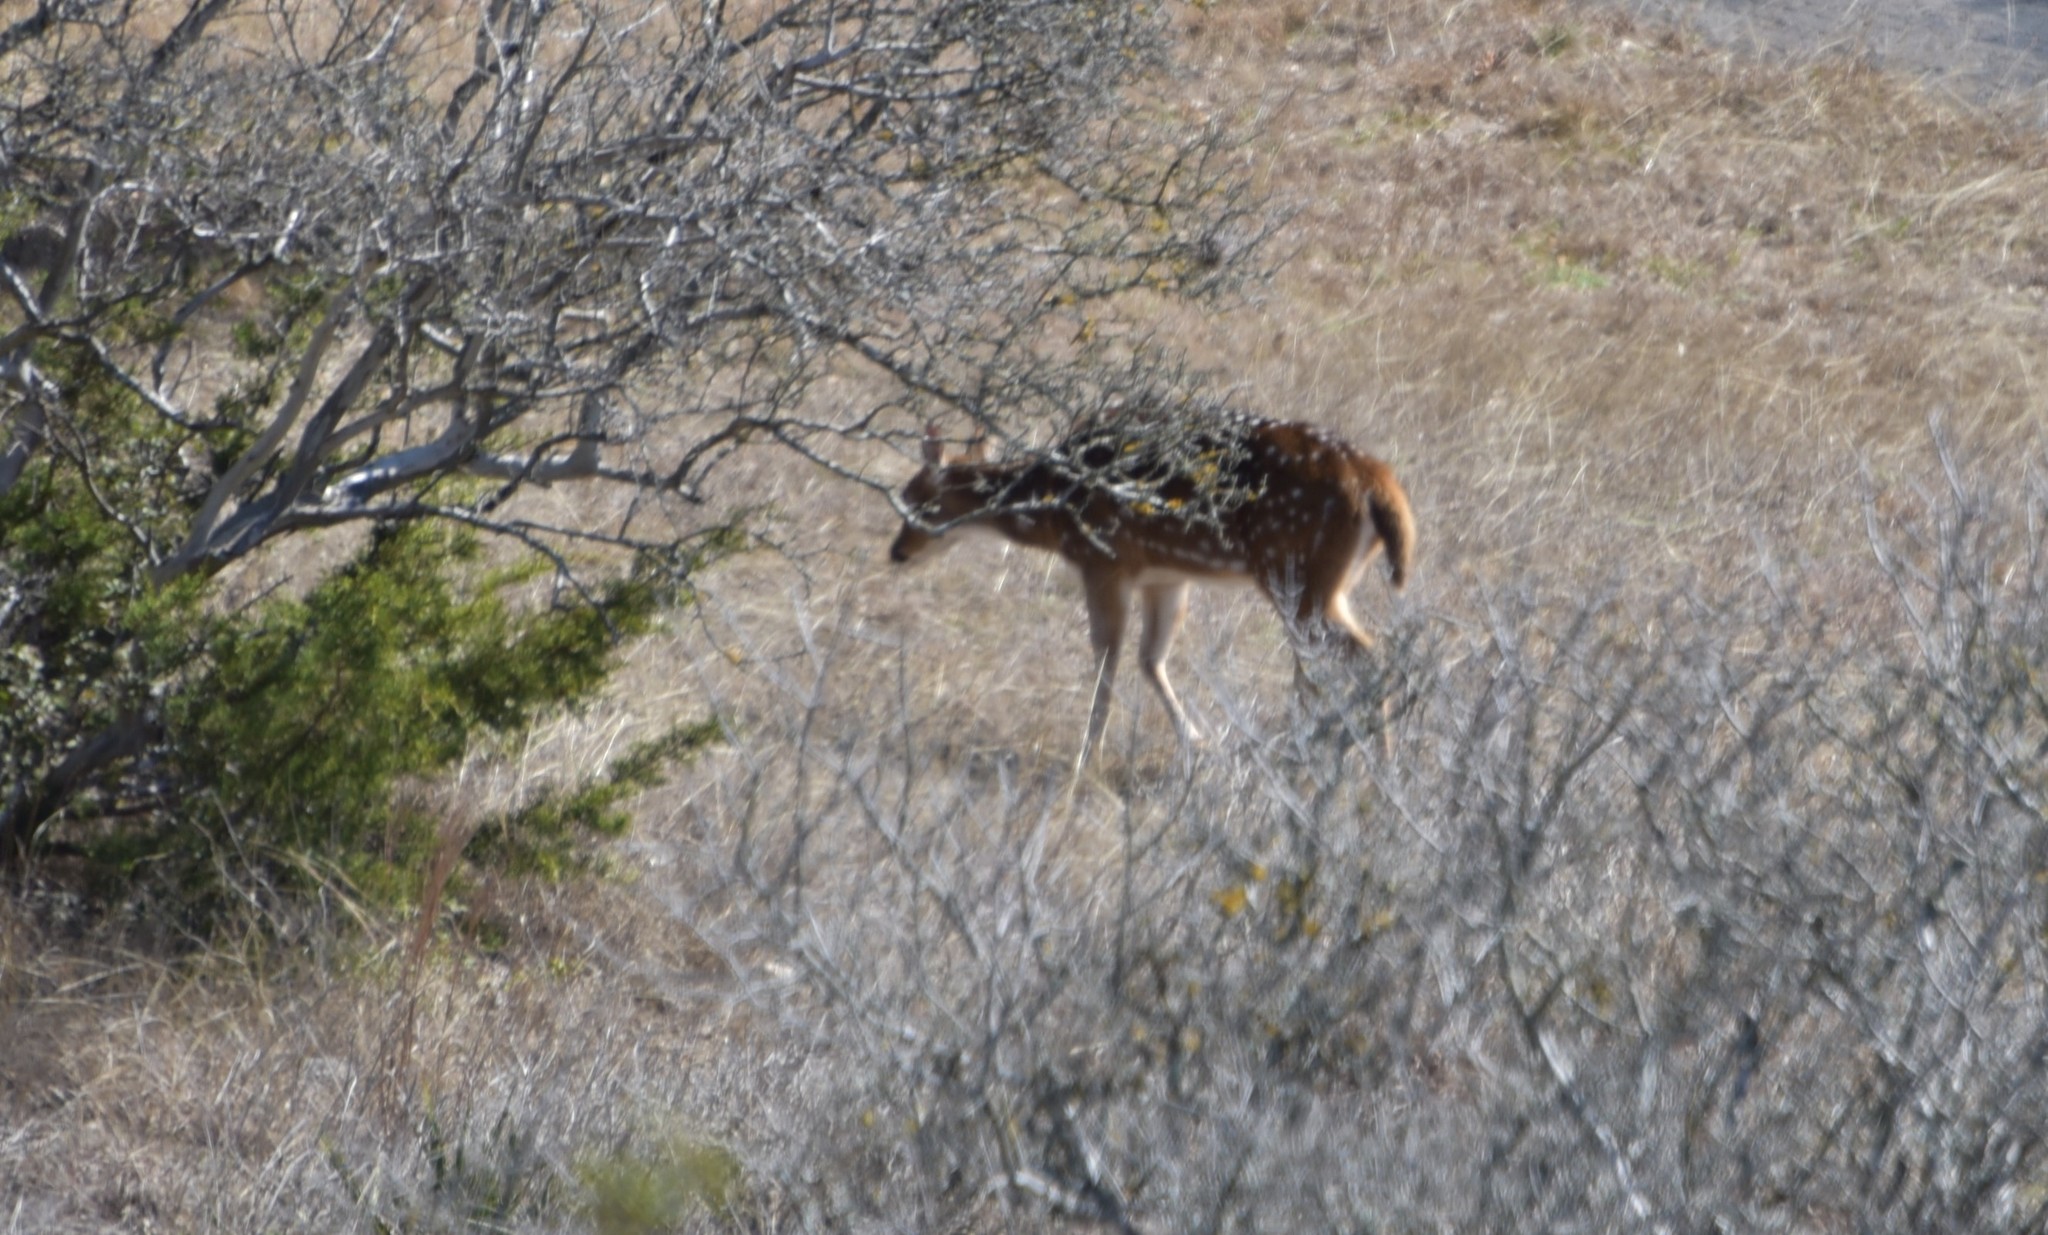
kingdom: Animalia
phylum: Chordata
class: Mammalia
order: Artiodactyla
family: Cervidae
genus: Axis
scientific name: Axis axis
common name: Chital
